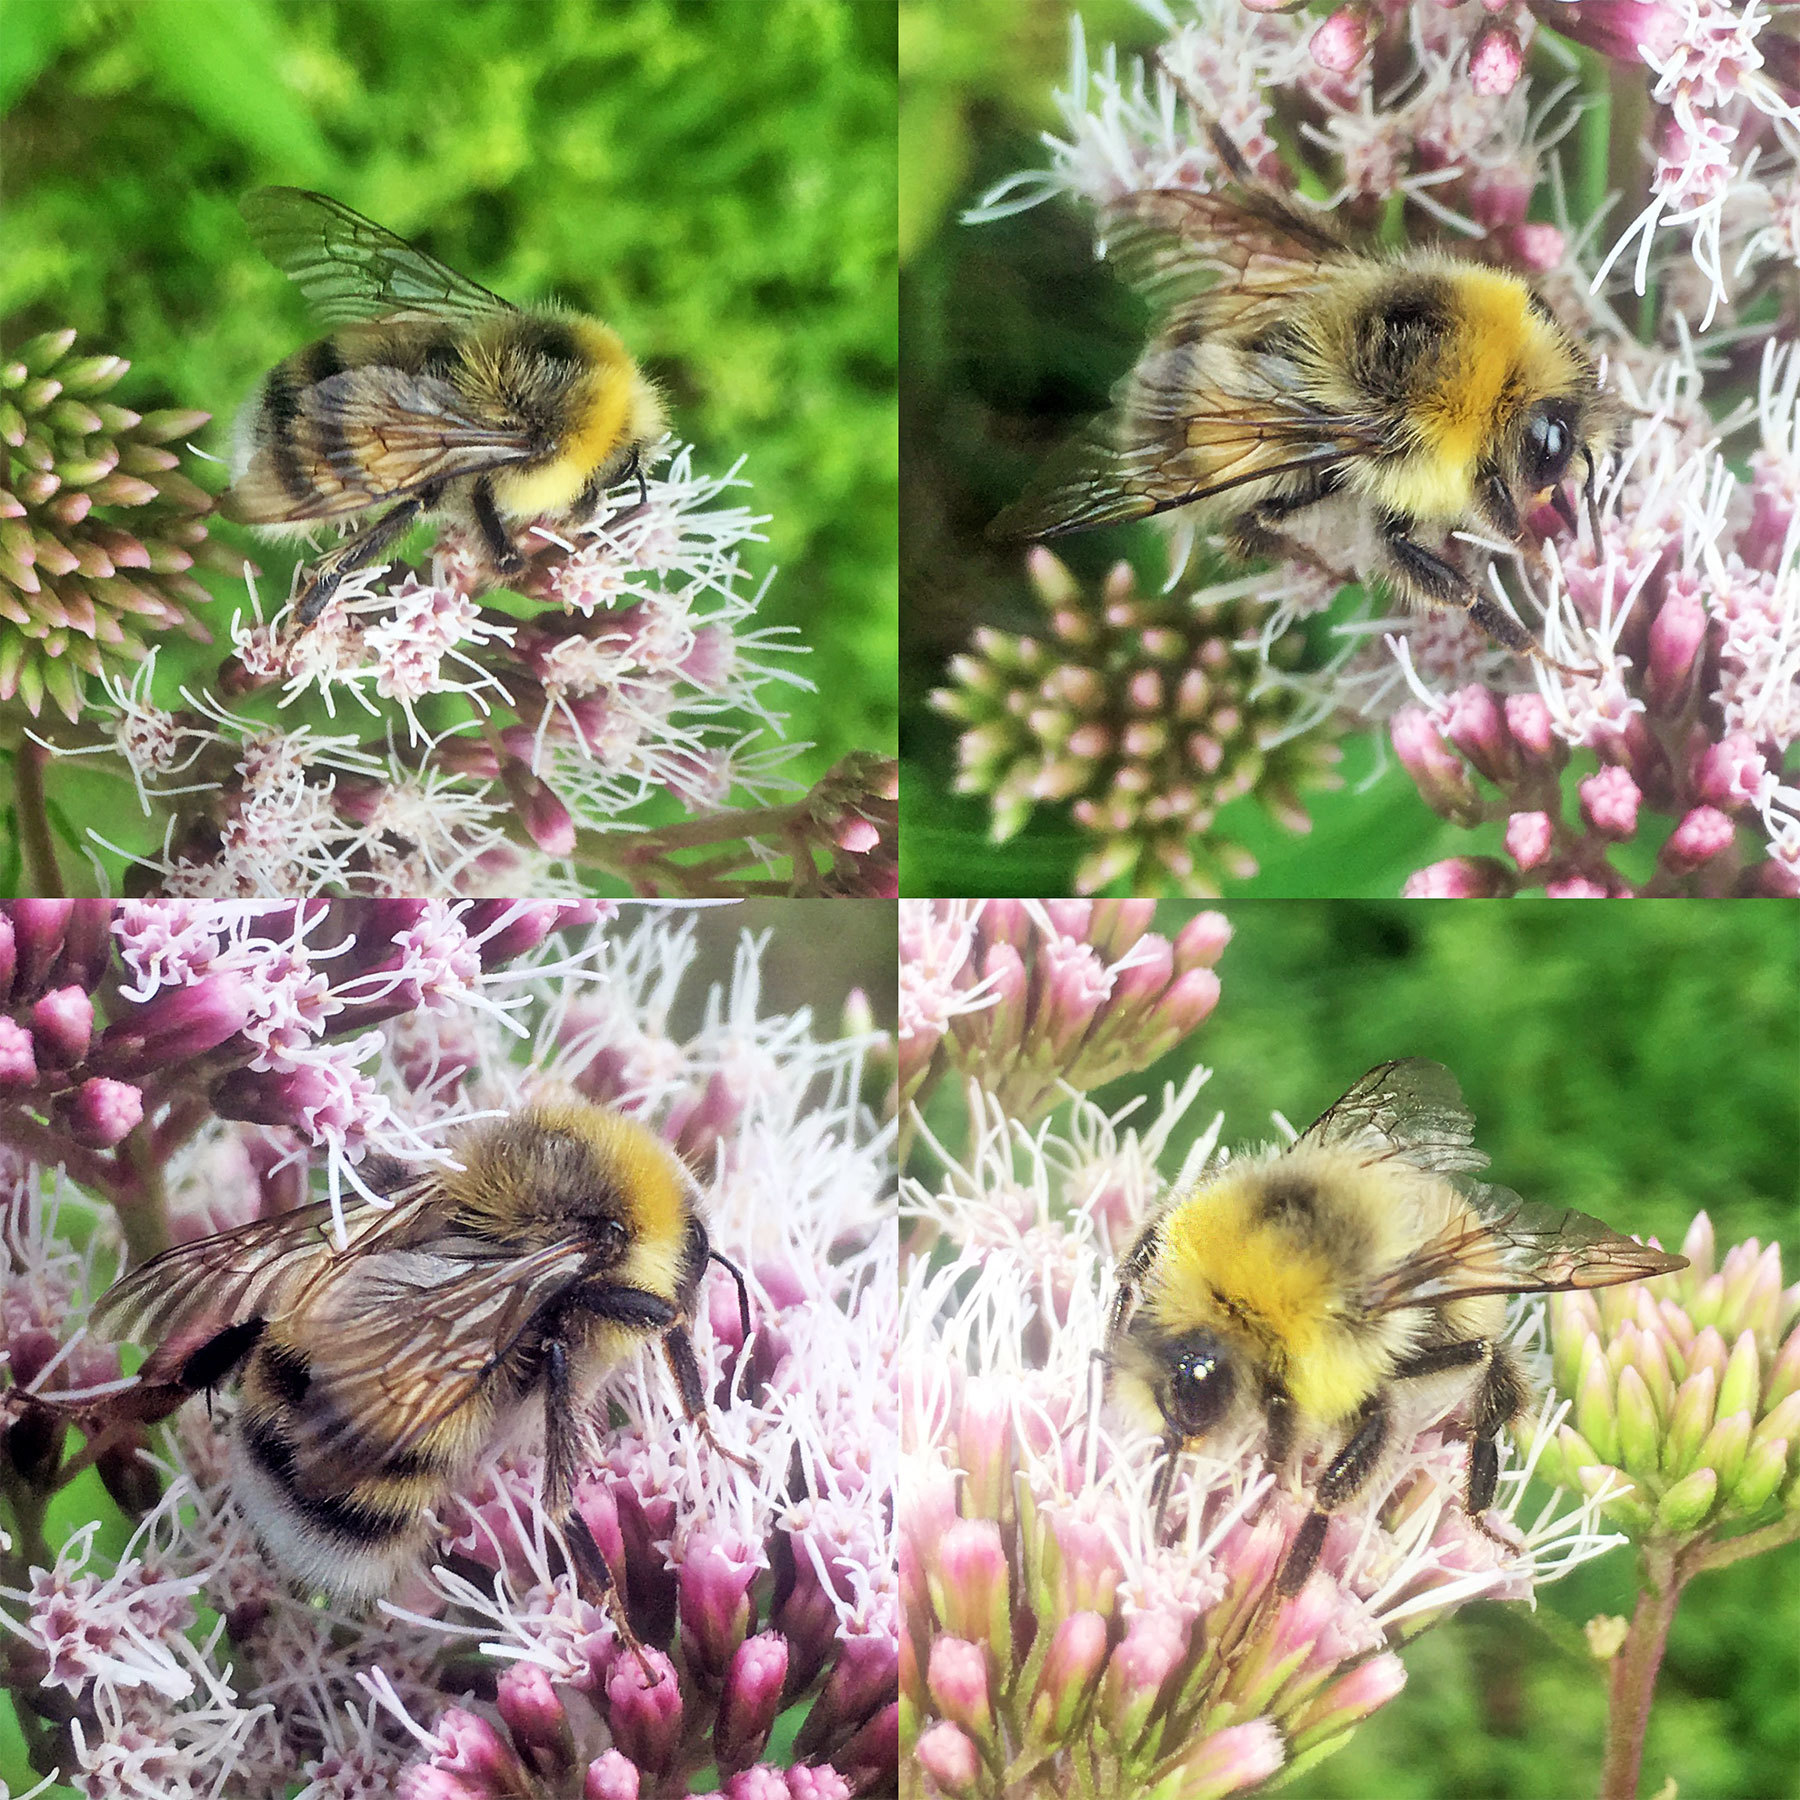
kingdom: Animalia
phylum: Arthropoda
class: Insecta
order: Hymenoptera
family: Apidae
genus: Bombus
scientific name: Bombus lucorum
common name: White-tailed bumblebee
